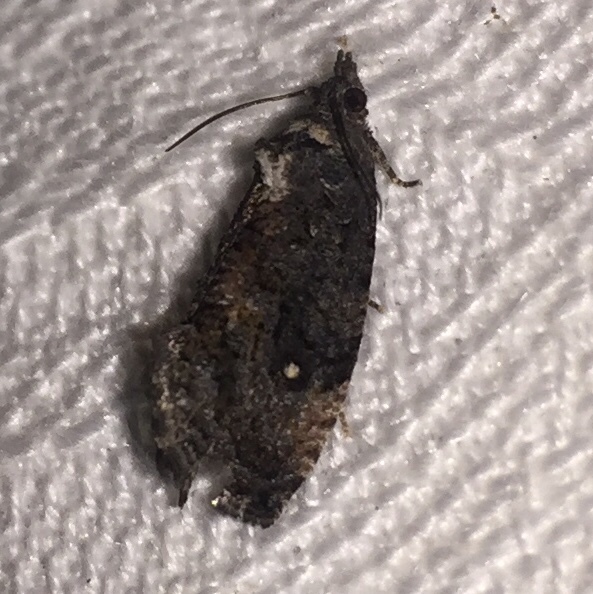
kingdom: Animalia
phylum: Arthropoda
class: Insecta
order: Lepidoptera
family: Tortricidae
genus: Gymnandrosoma
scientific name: Gymnandrosoma punctidiscanum
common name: Dotted ecdytolopha moth
